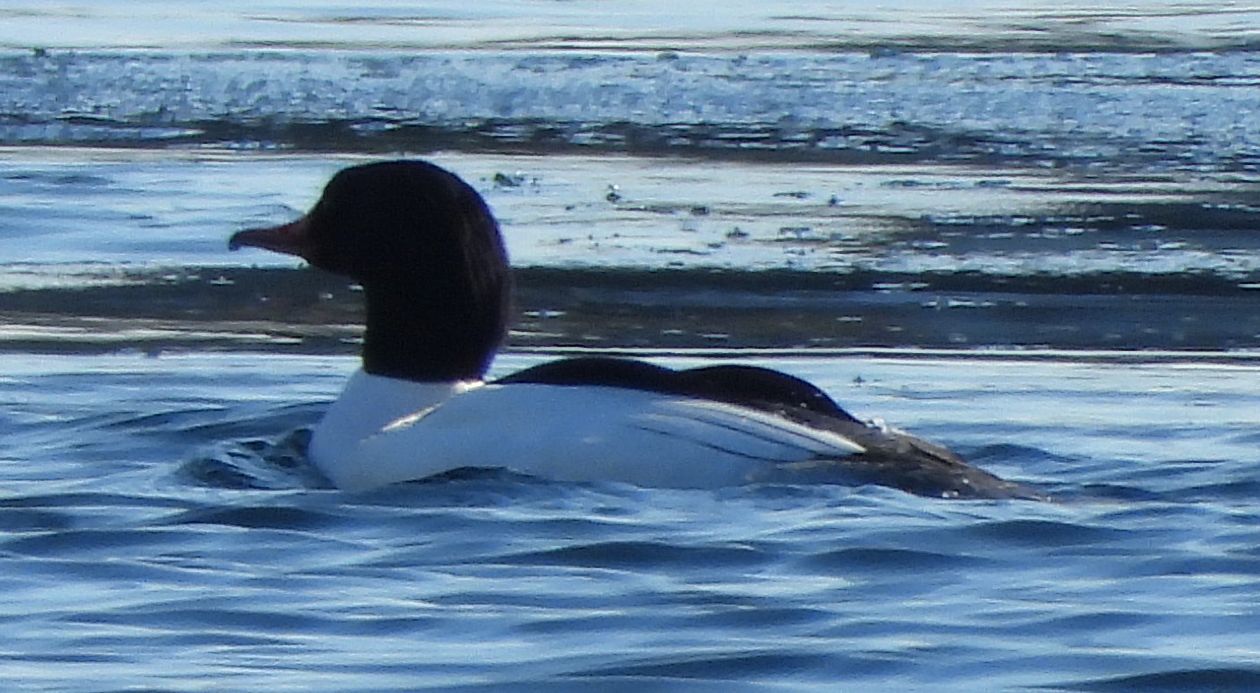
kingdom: Animalia
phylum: Chordata
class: Aves
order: Anseriformes
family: Anatidae
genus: Mergus
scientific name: Mergus merganser
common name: Common merganser
